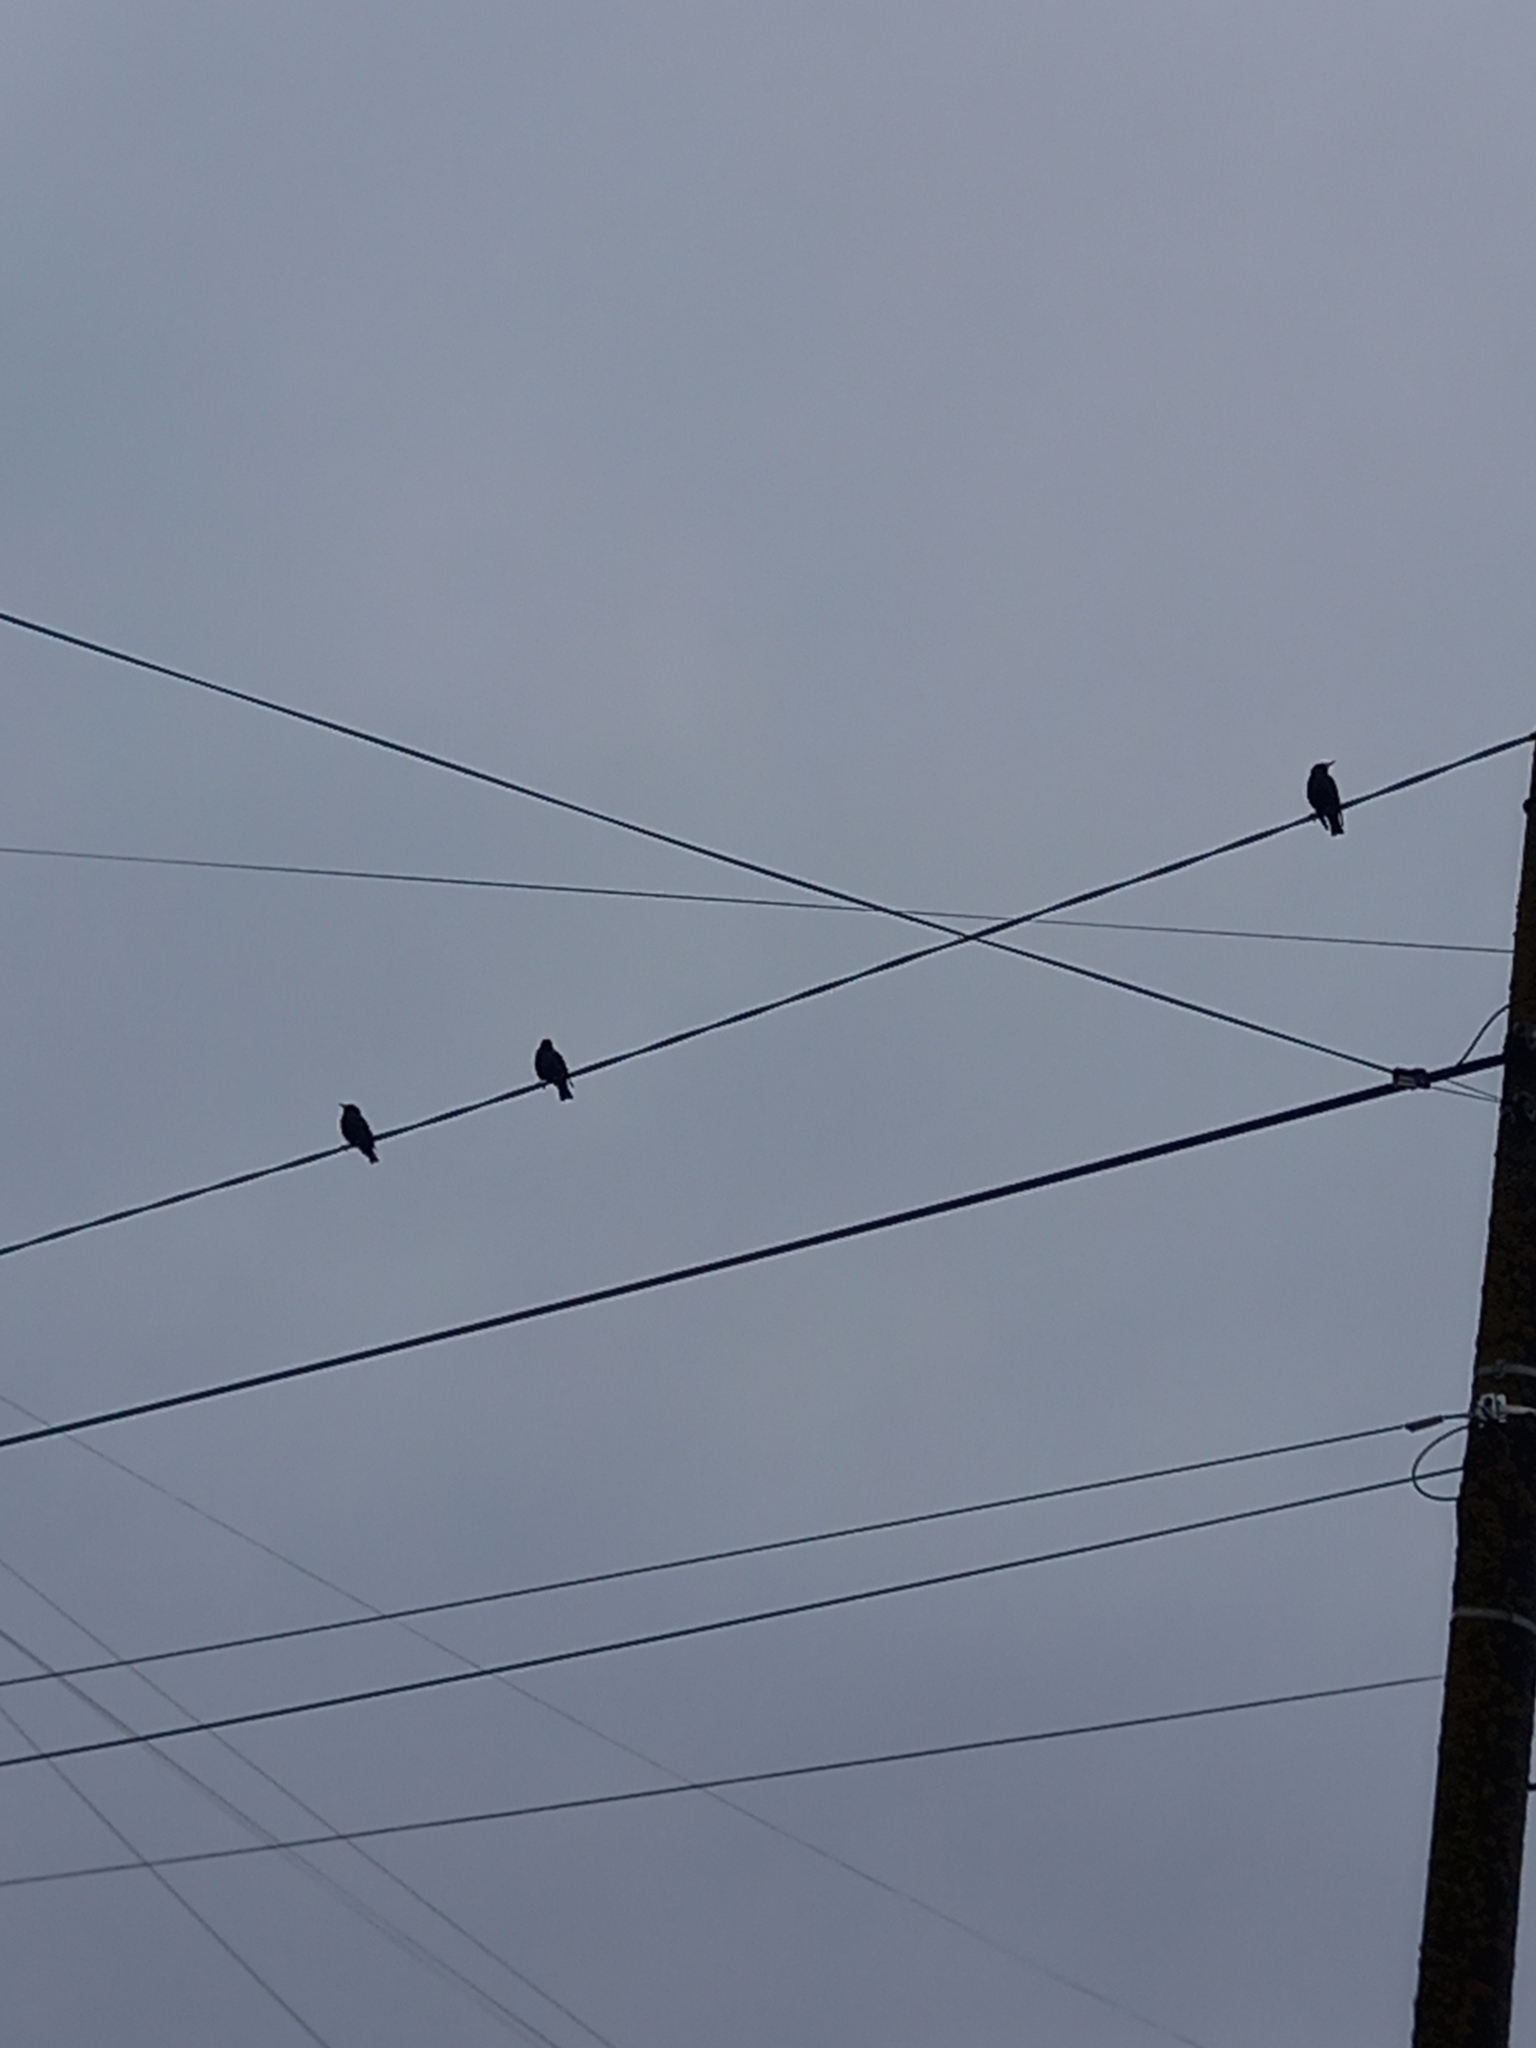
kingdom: Animalia
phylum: Chordata
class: Aves
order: Passeriformes
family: Sturnidae
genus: Sturnus
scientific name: Sturnus vulgaris
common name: Common starling
